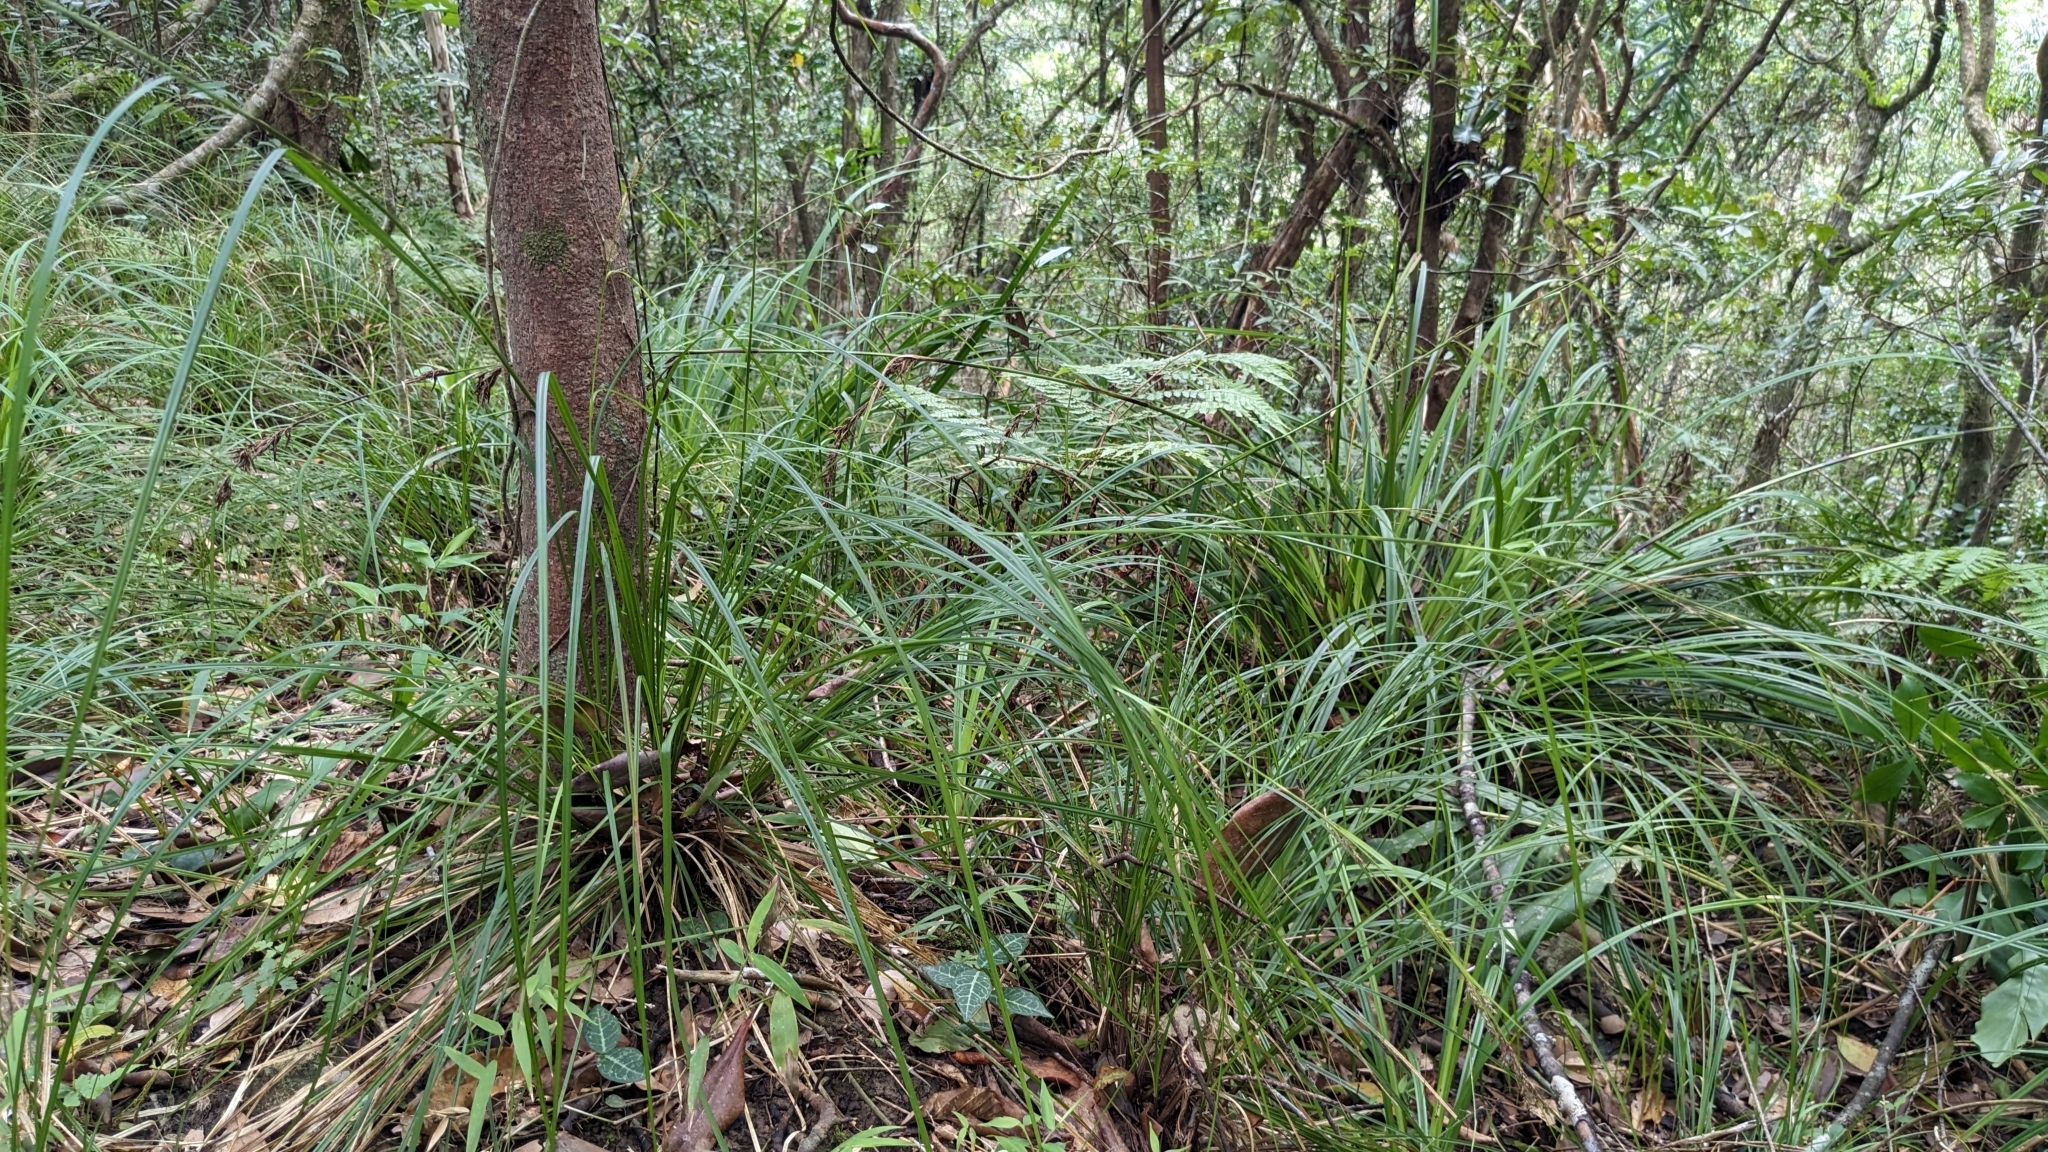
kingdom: Plantae
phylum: Tracheophyta
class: Liliopsida
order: Poales
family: Cyperaceae
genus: Carex
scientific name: Carex brunnea
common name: Greater brown sedge
